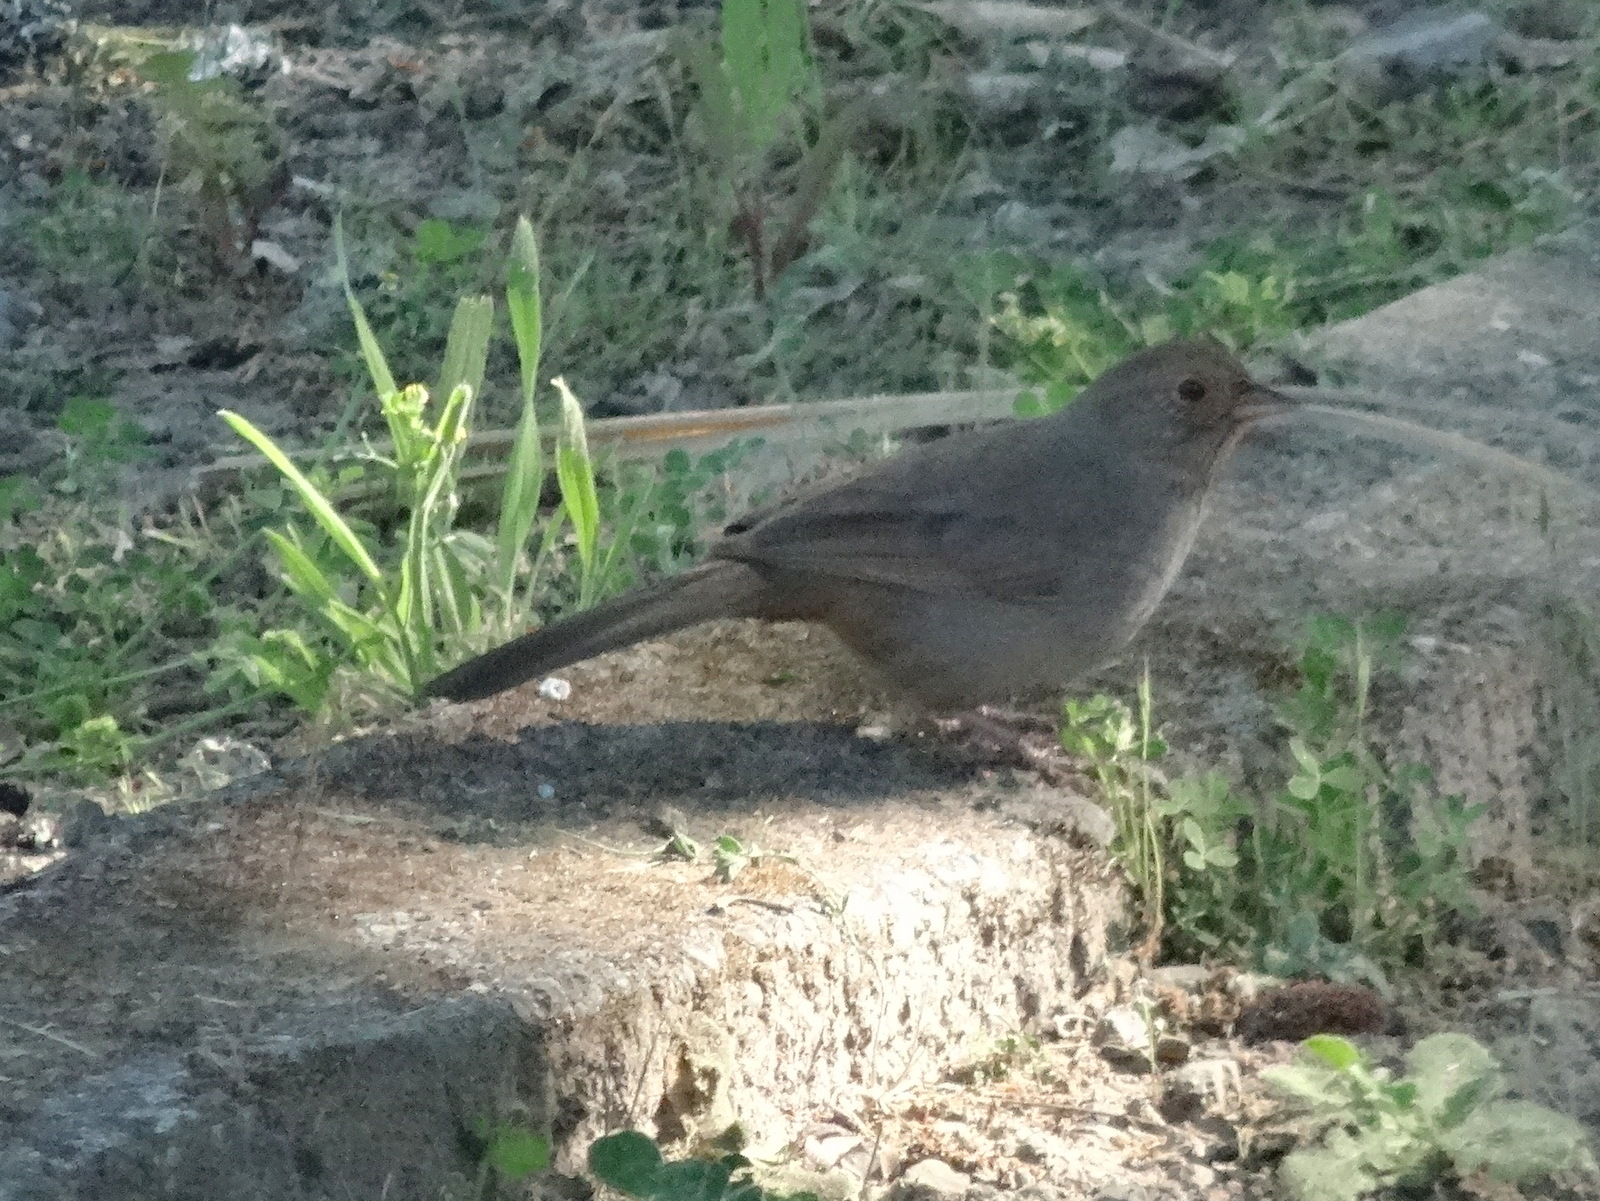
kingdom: Animalia
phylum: Chordata
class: Aves
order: Passeriformes
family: Passerellidae
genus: Melozone
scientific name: Melozone crissalis
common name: California towhee
